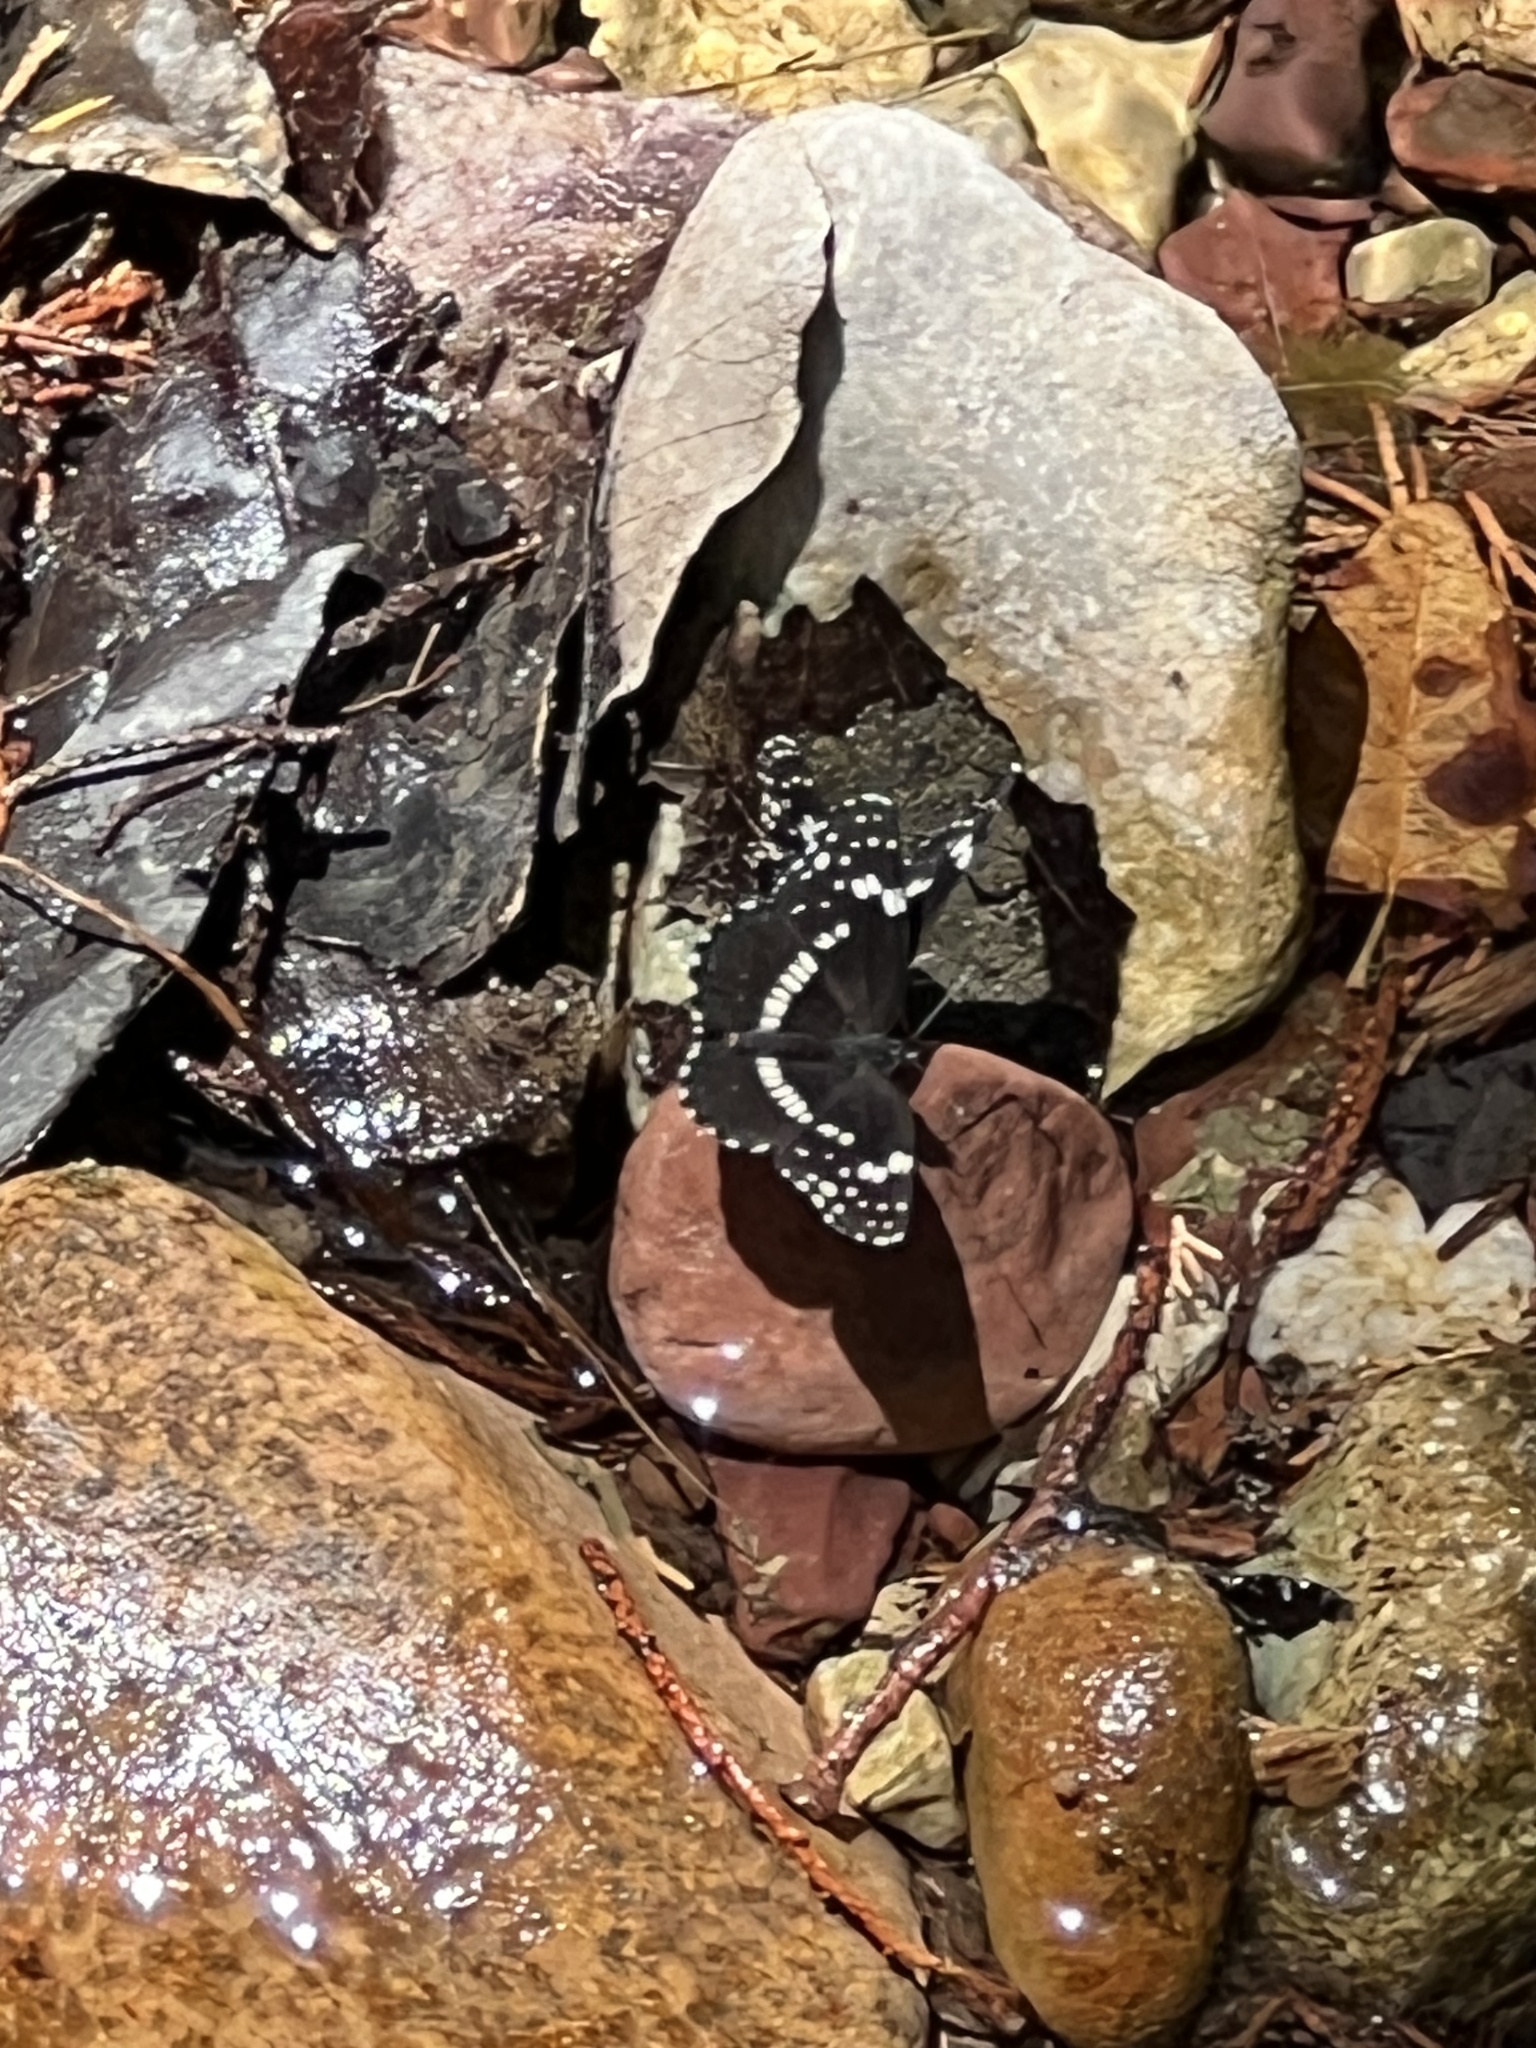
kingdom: Animalia
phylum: Arthropoda
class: Insecta
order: Lepidoptera
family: Nymphalidae
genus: Chlosyne
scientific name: Chlosyne lacinia
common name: Bordered patch
